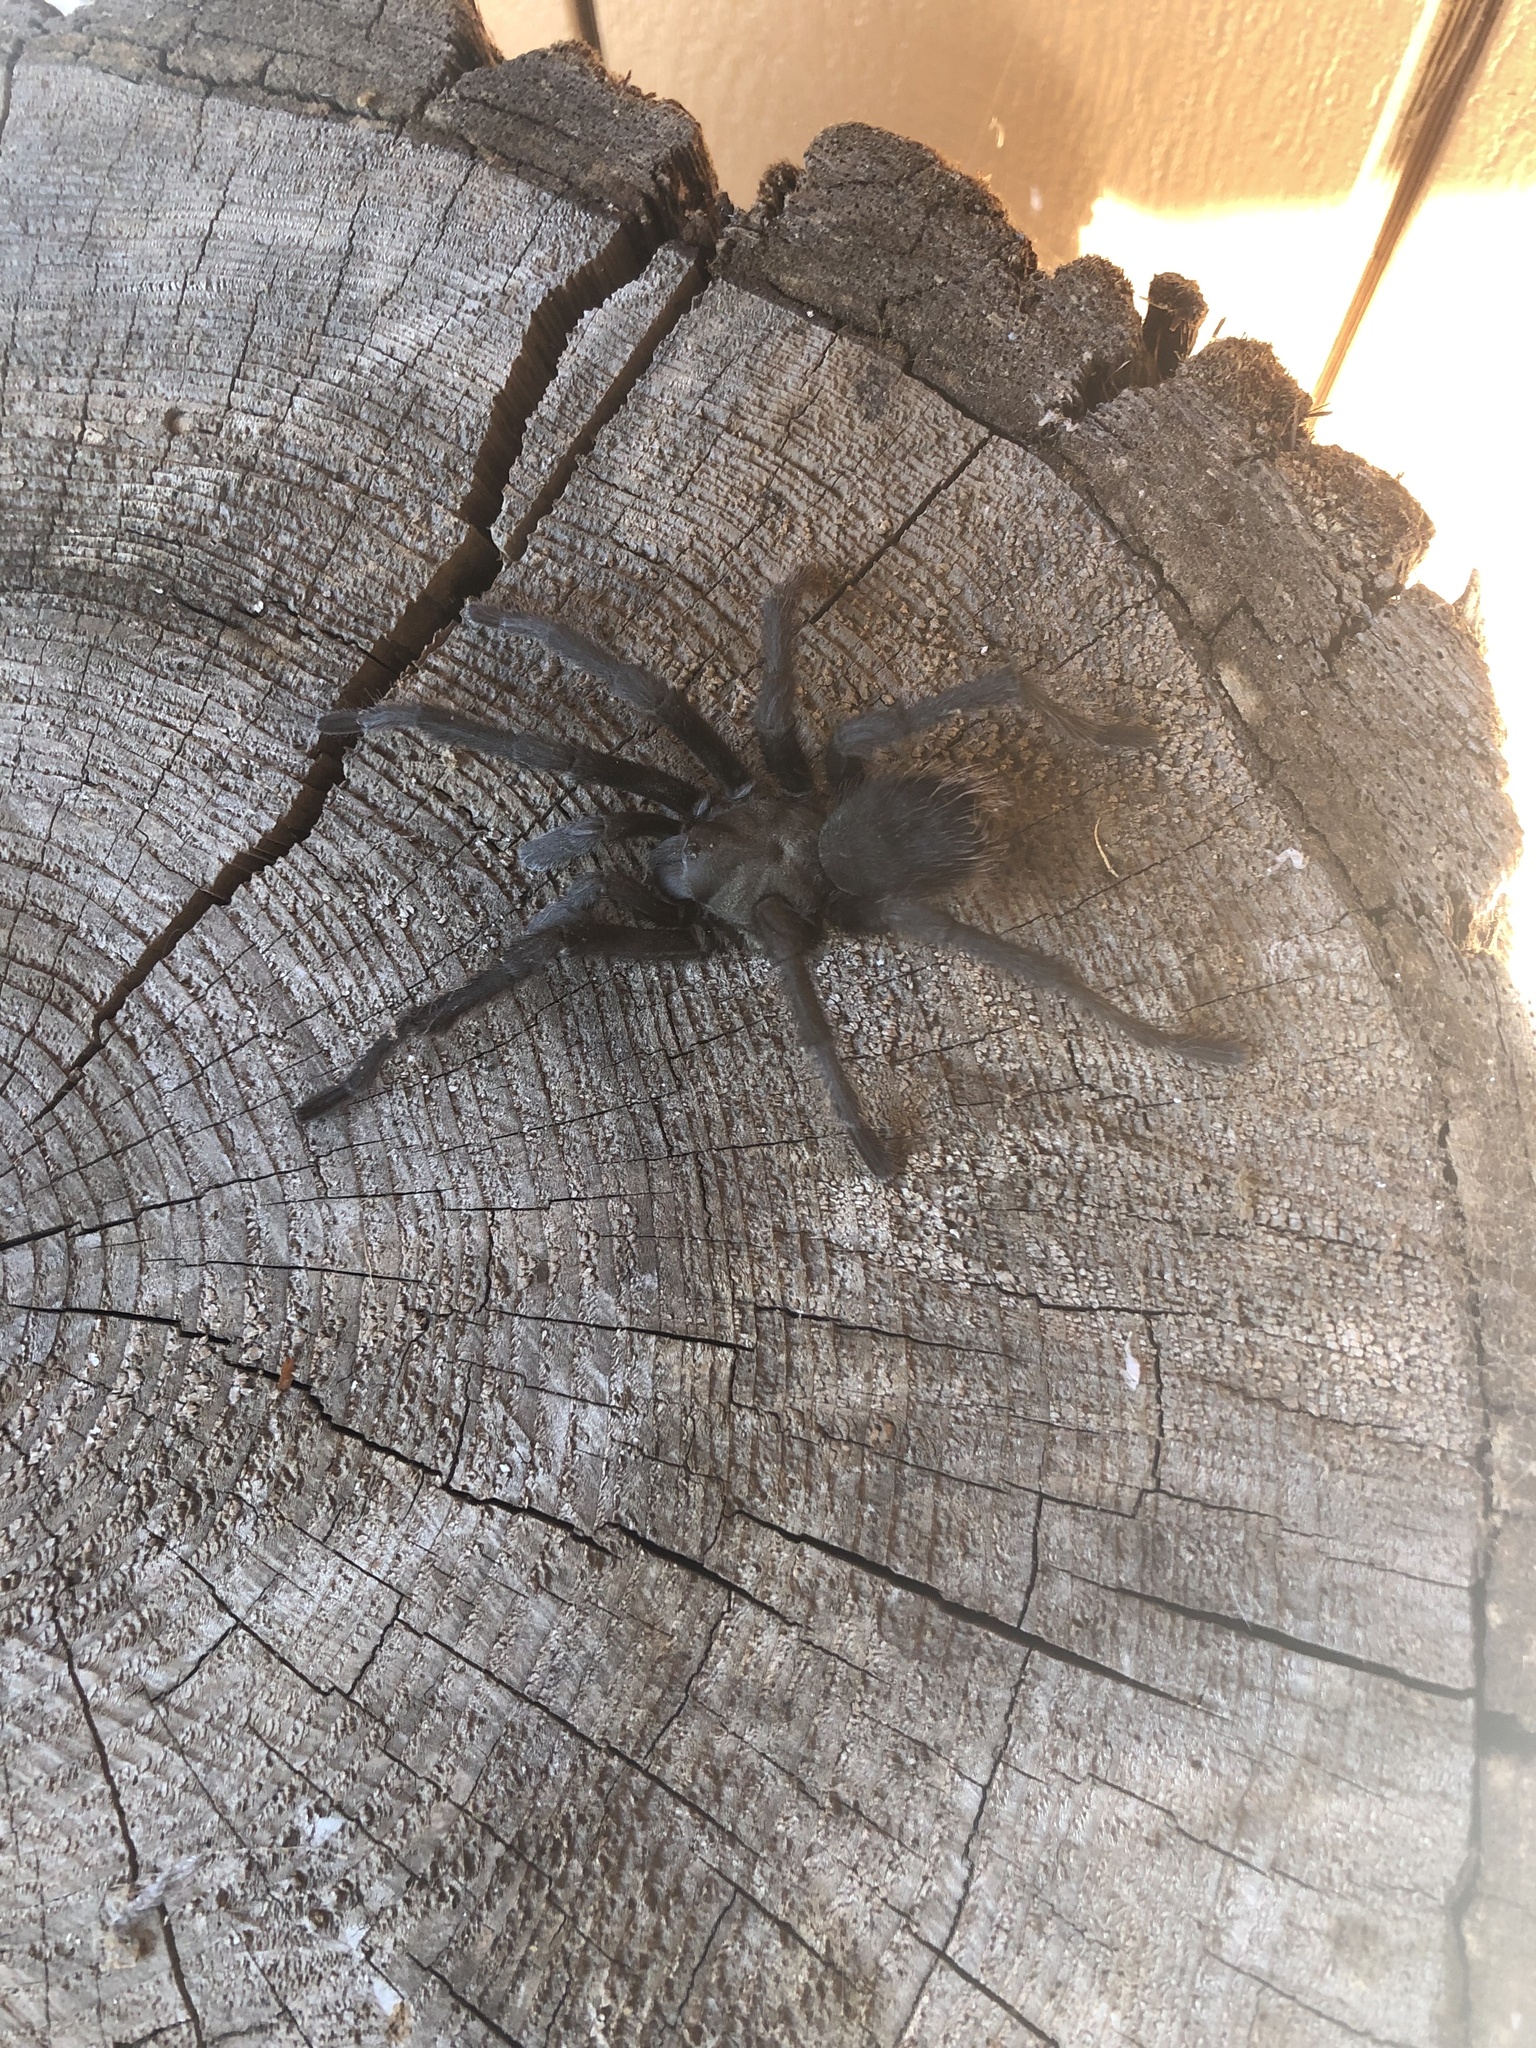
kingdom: Animalia
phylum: Arthropoda
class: Arachnida
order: Araneae
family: Theraphosidae
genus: Aphonopelma
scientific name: Aphonopelma johnnycashi
